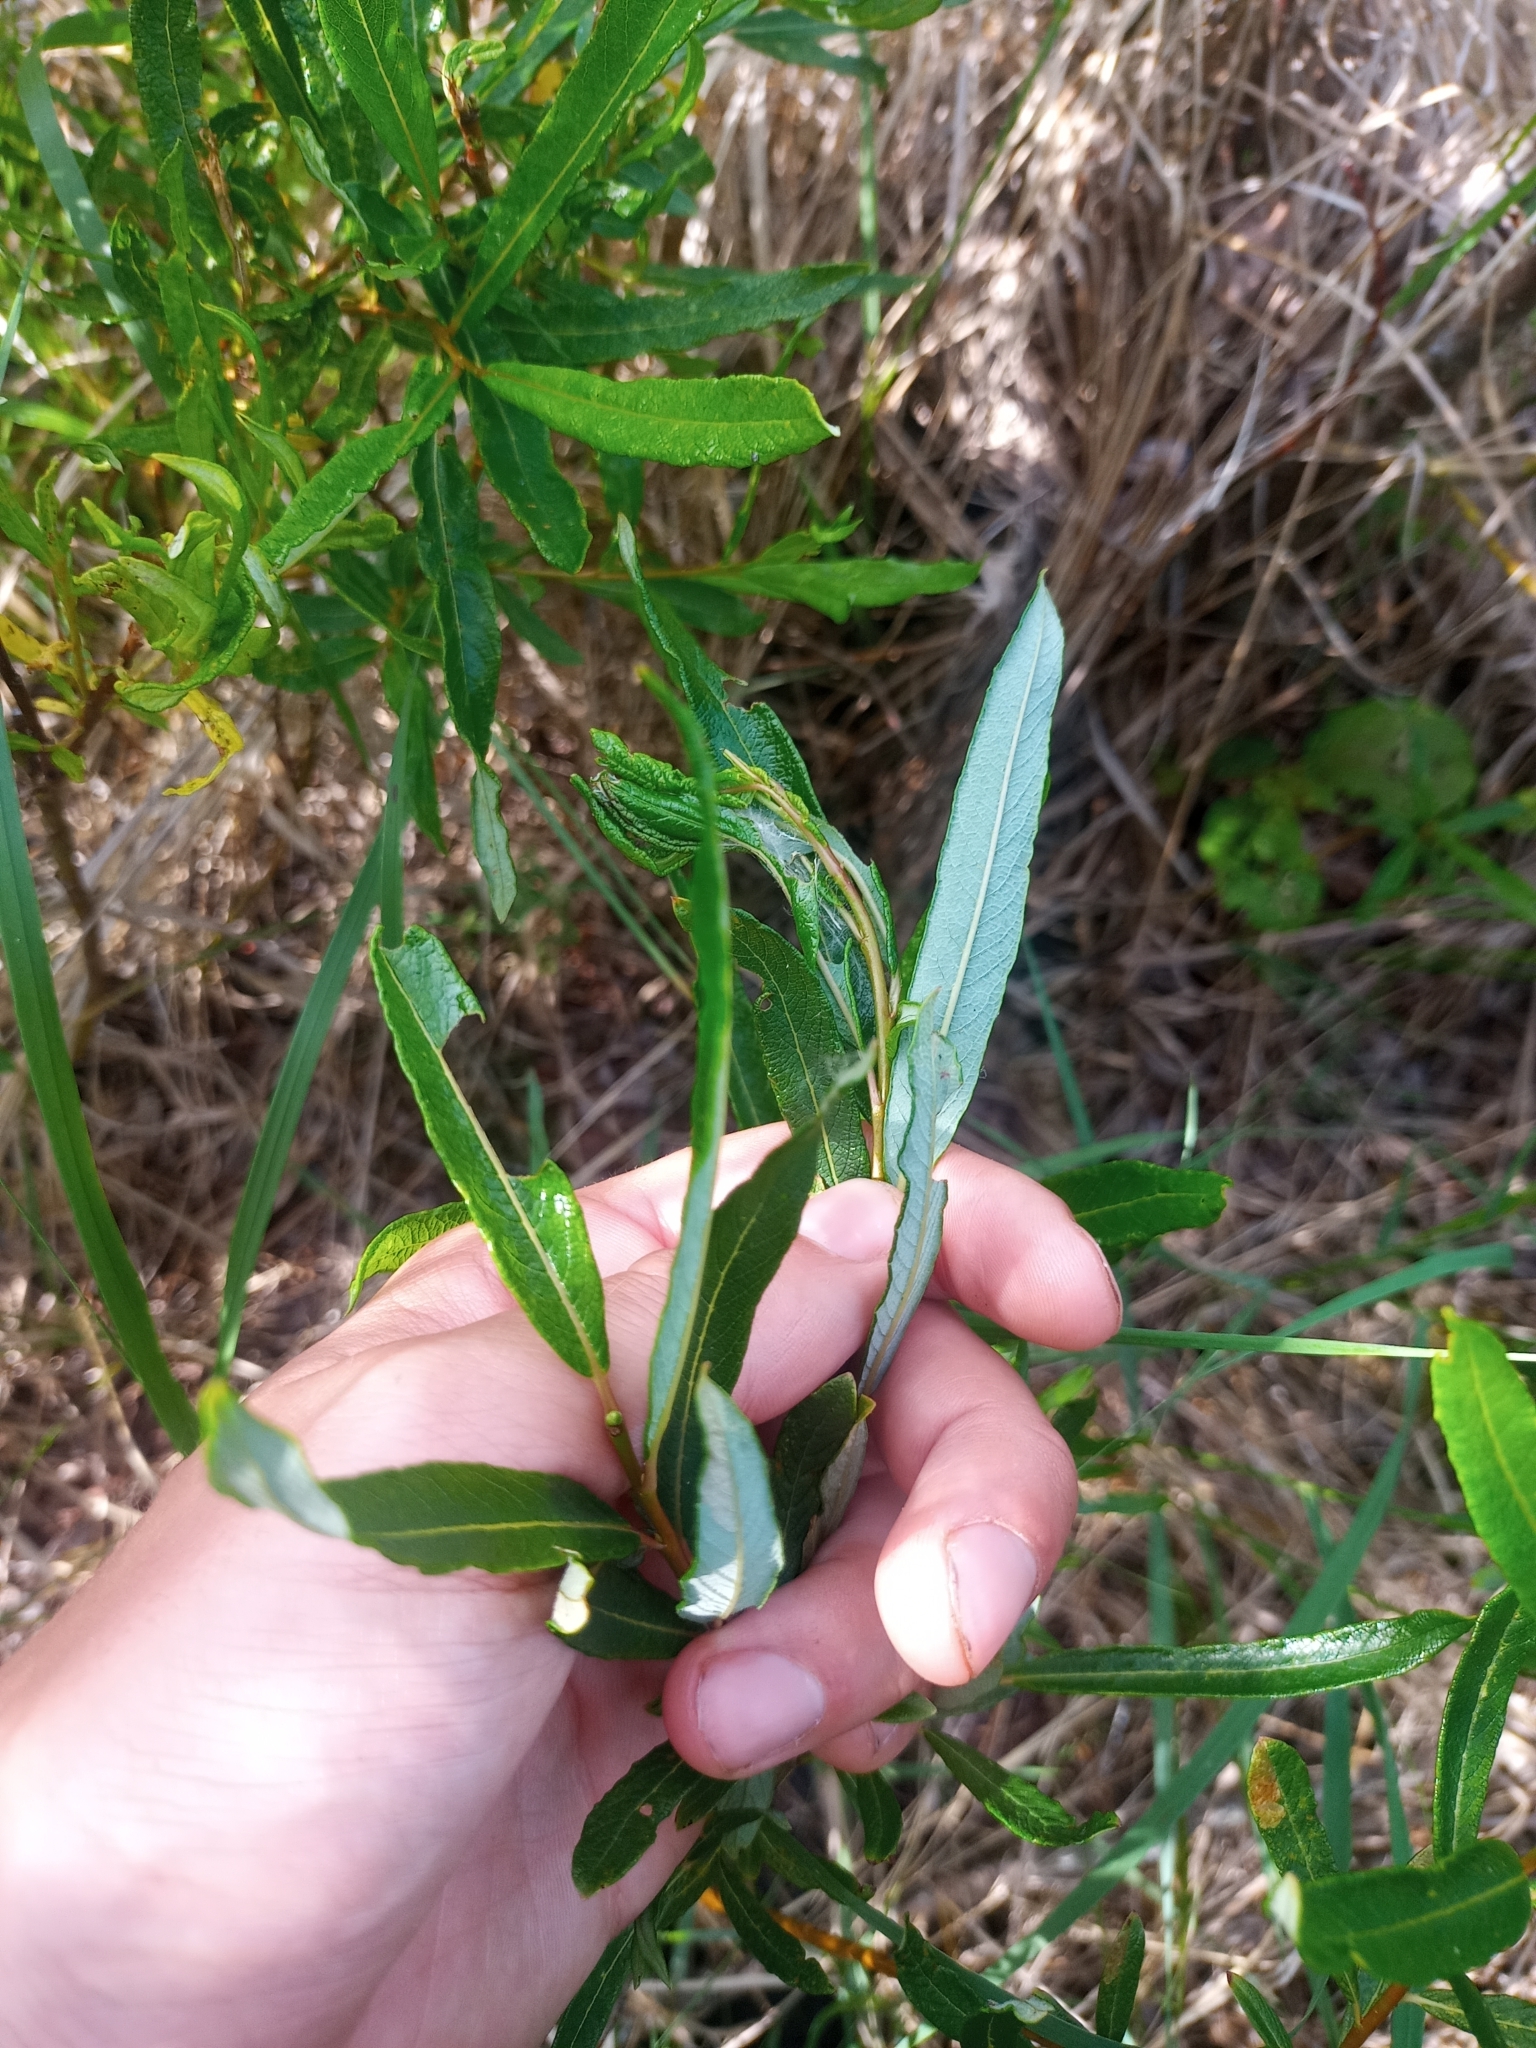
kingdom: Plantae
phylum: Tracheophyta
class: Magnoliopsida
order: Malpighiales
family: Salicaceae
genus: Salix
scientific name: Salix pellita
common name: Satiny willow
